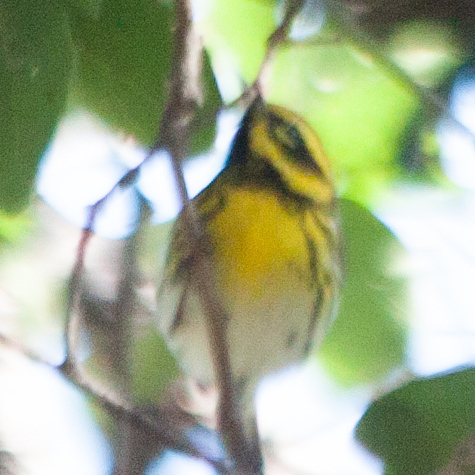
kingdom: Animalia
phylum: Chordata
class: Aves
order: Passeriformes
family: Parulidae
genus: Setophaga
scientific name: Setophaga townsendi
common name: Townsend's warbler
